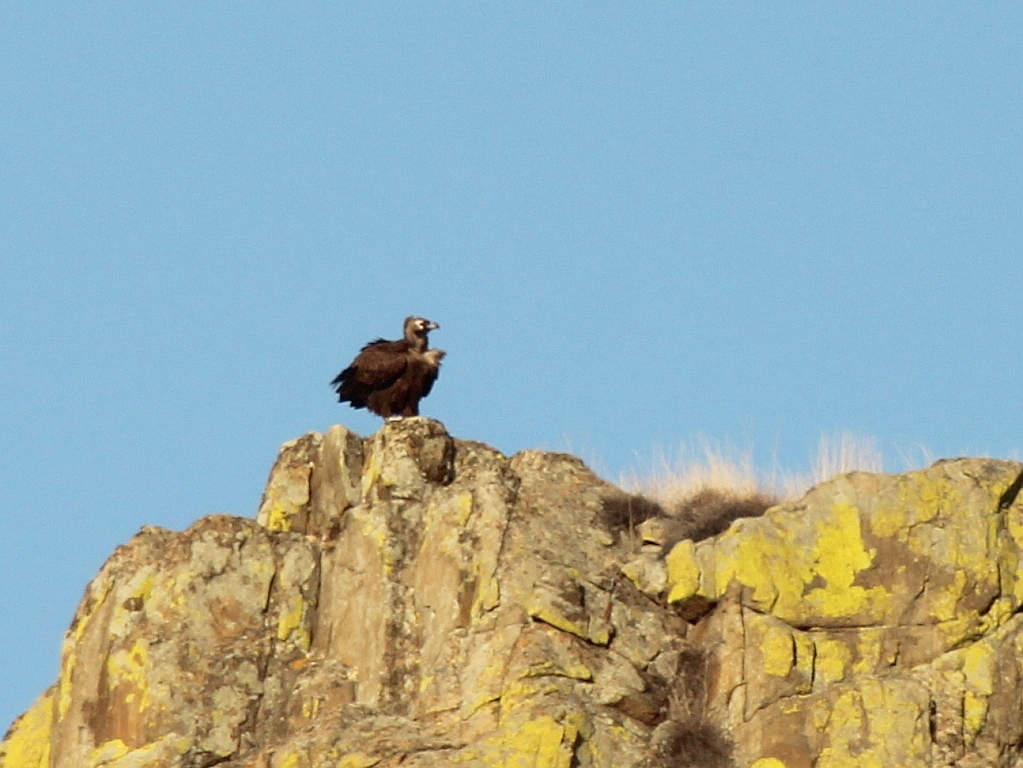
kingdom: Animalia
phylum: Chordata
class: Aves
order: Accipitriformes
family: Accipitridae
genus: Aegypius
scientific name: Aegypius monachus
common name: Cinereous vulture
